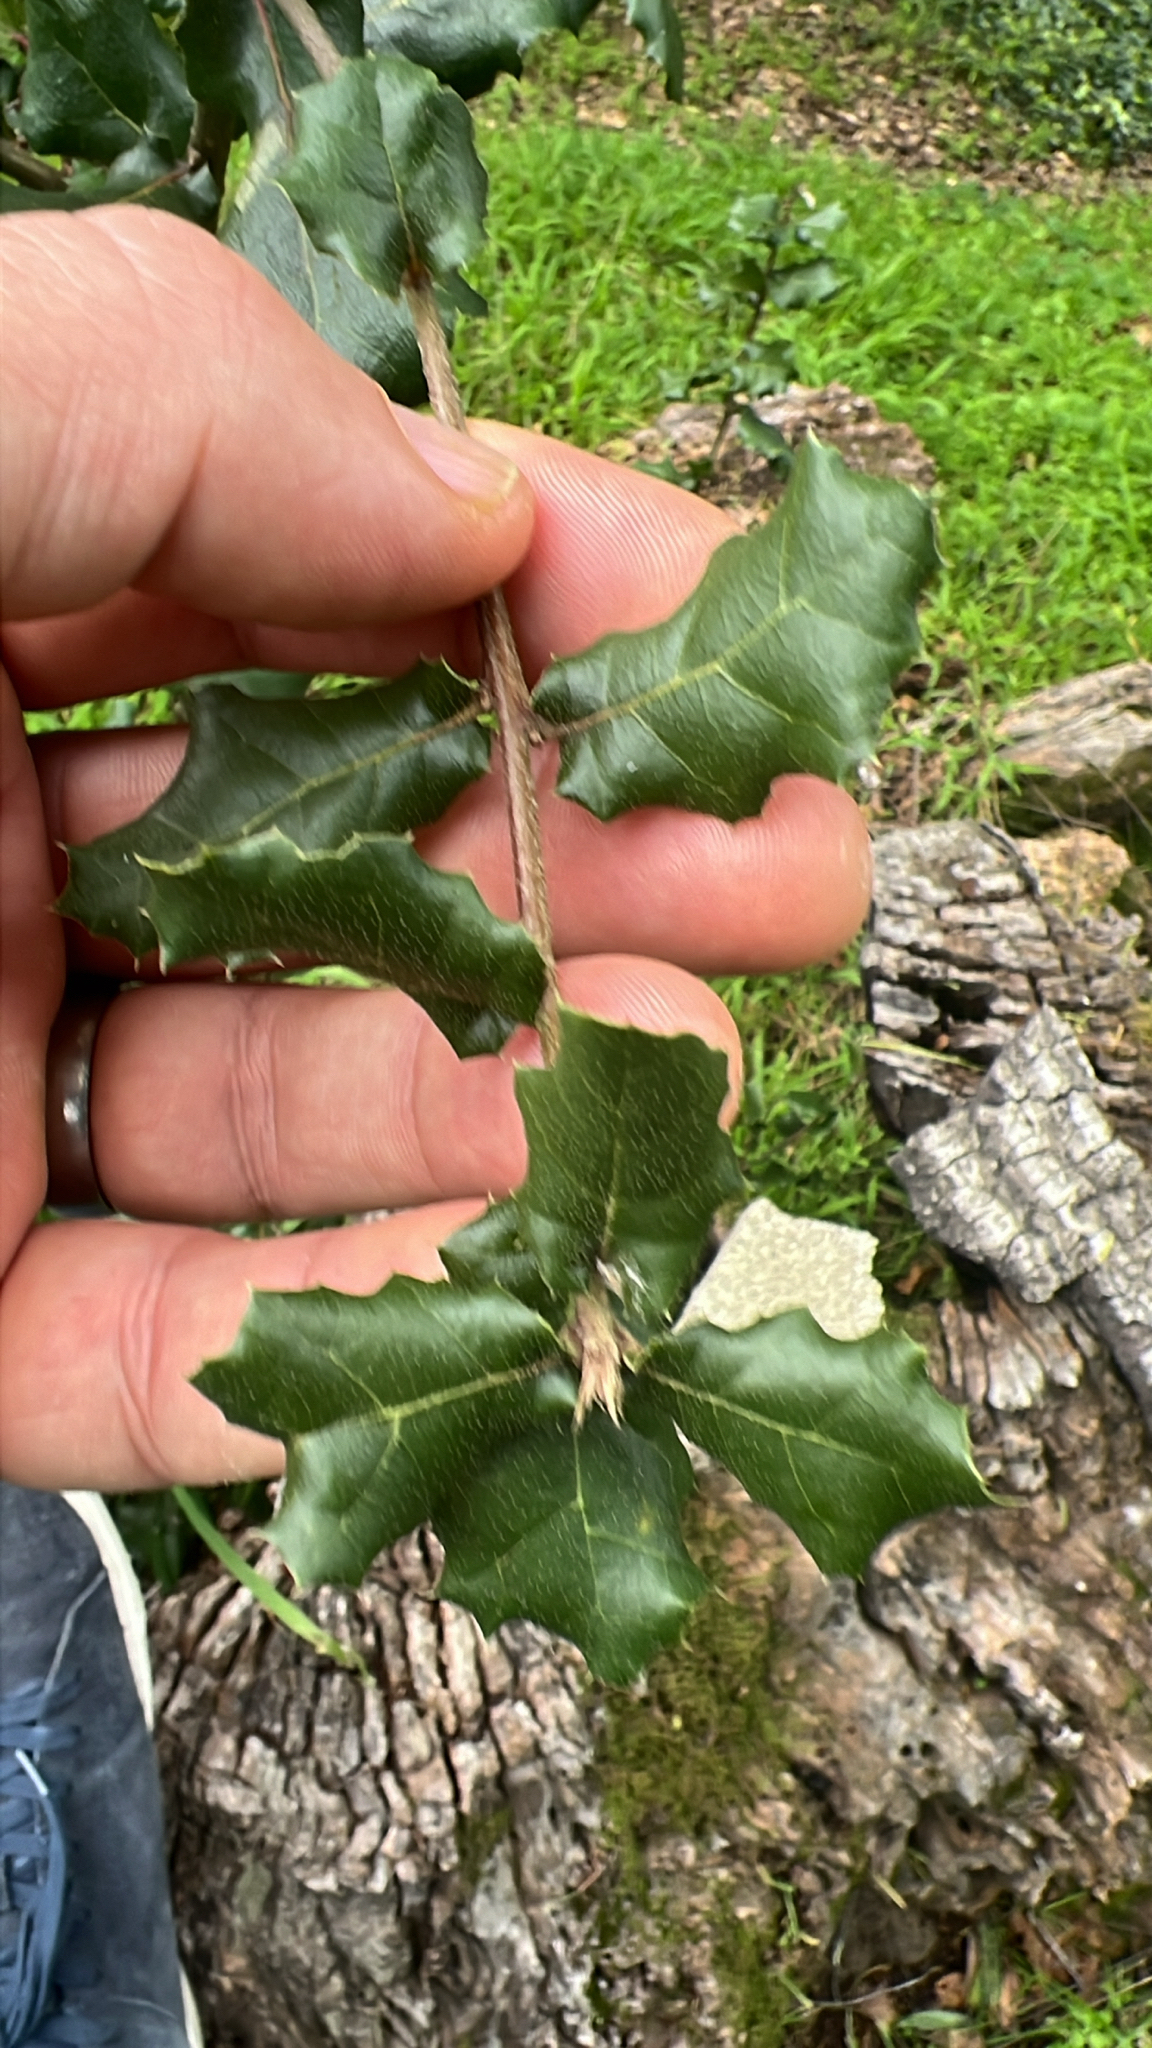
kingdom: Plantae
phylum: Tracheophyta
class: Magnoliopsida
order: Fagales
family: Fagaceae
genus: Quercus
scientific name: Quercus agrifolia
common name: California live oak
